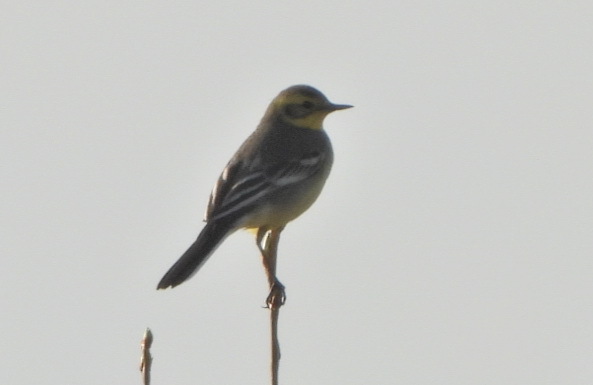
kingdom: Animalia
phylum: Chordata
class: Aves
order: Passeriformes
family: Motacillidae
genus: Motacilla
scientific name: Motacilla citreola
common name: Citrine wagtail
